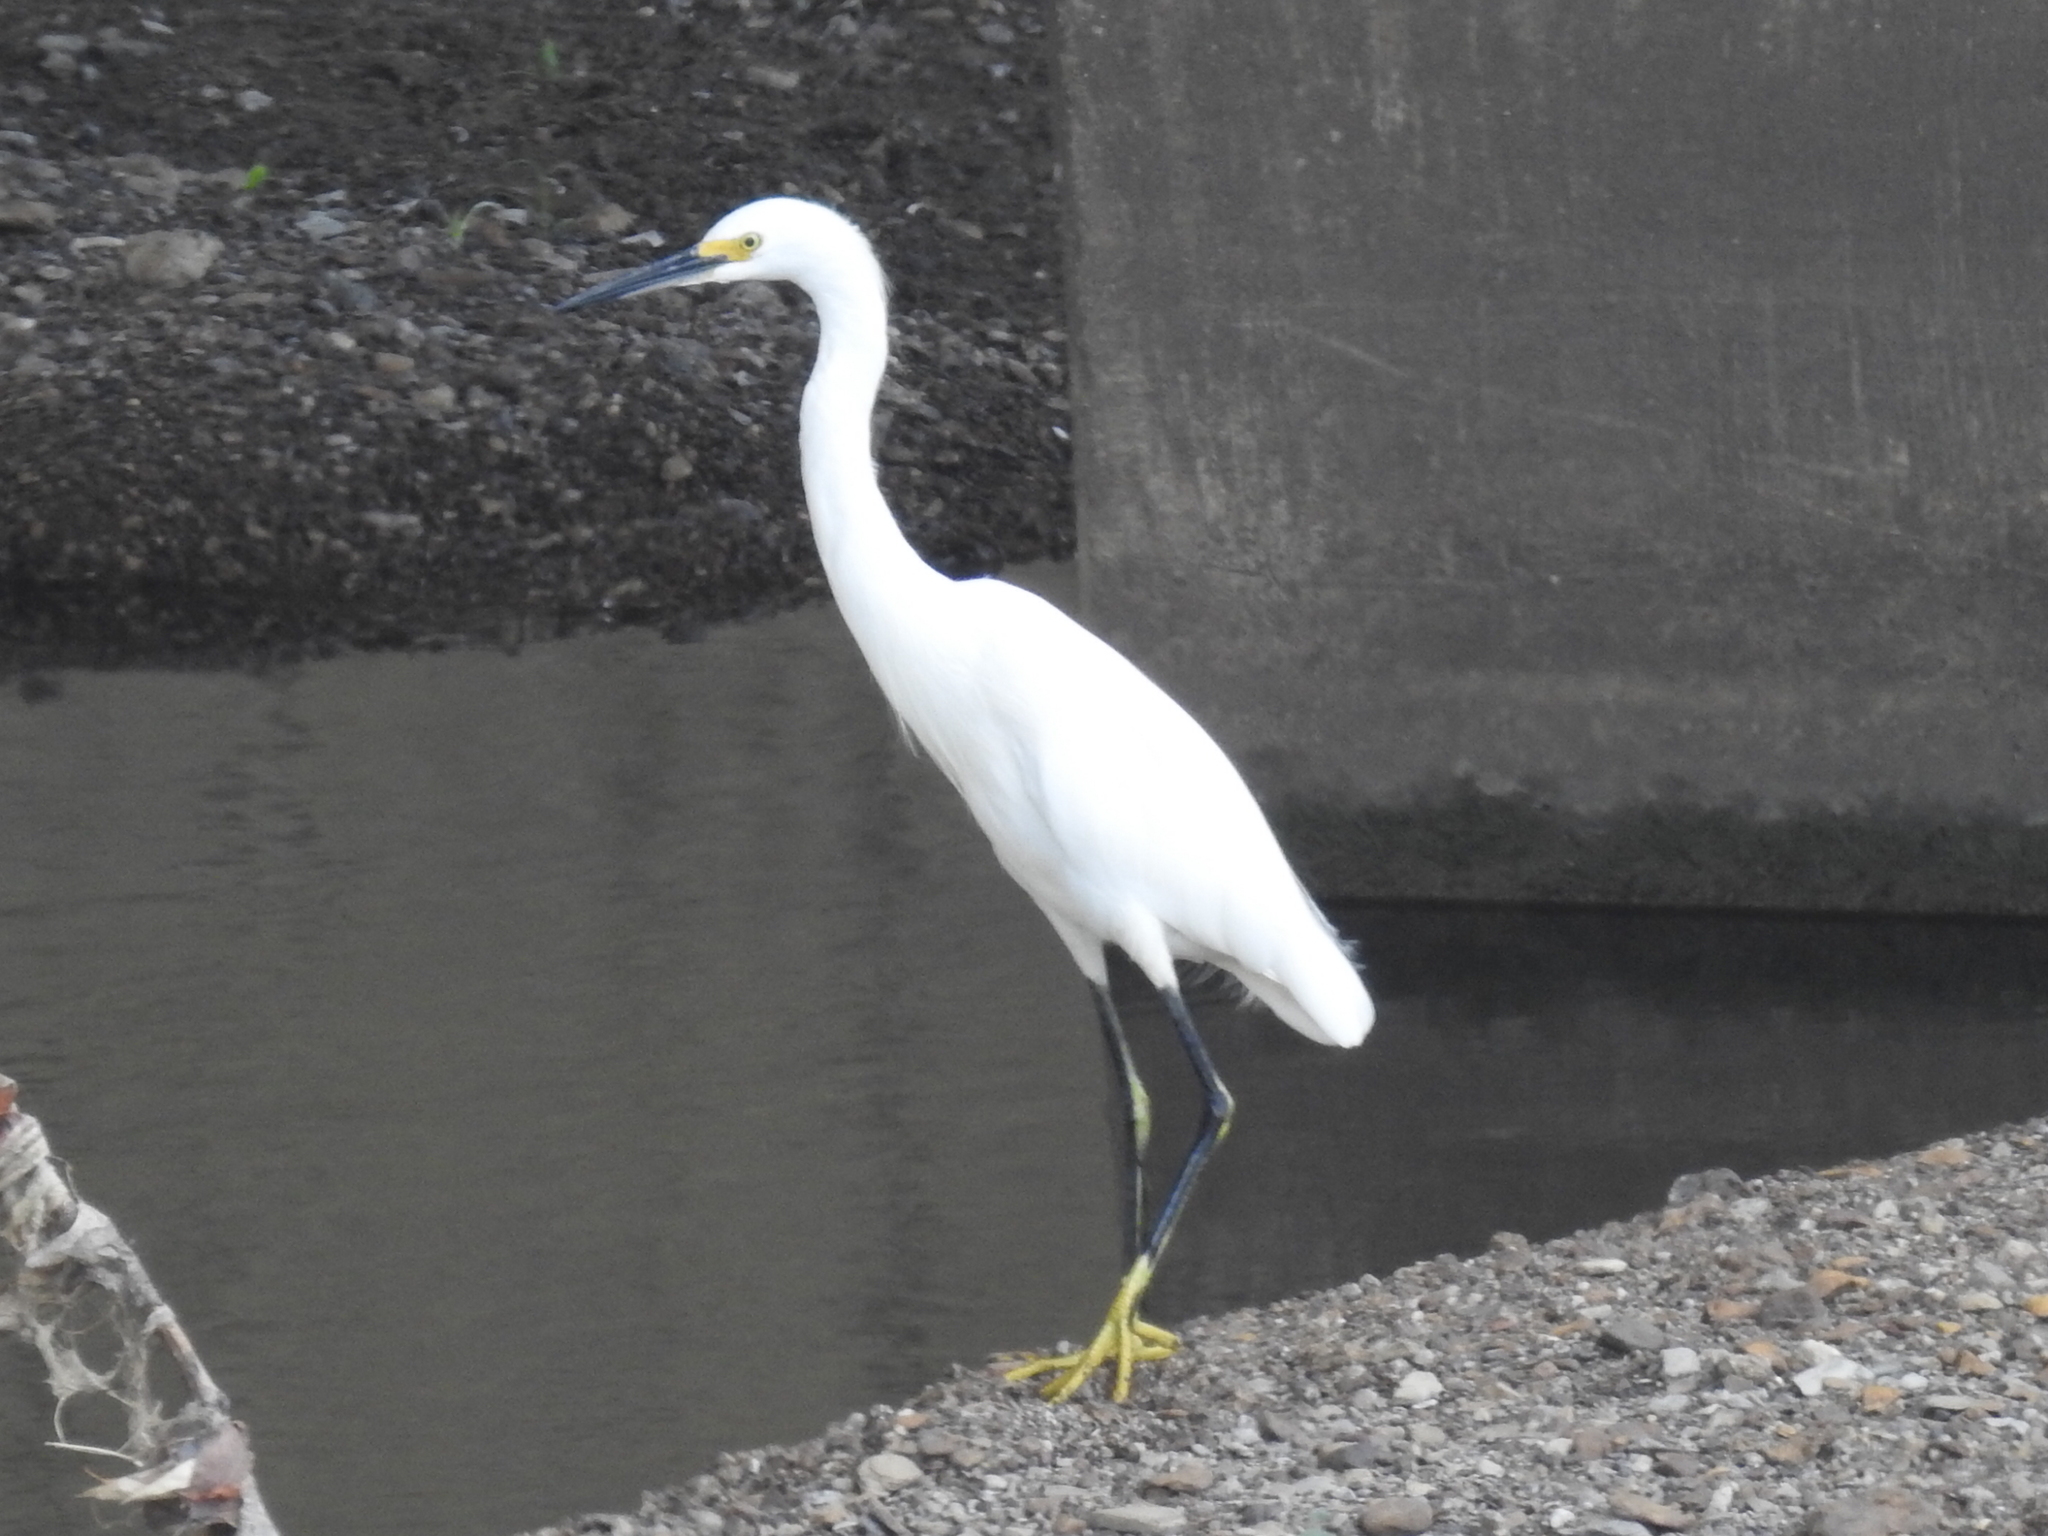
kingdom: Animalia
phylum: Chordata
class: Aves
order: Pelecaniformes
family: Ardeidae
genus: Egretta
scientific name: Egretta thula
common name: Snowy egret
